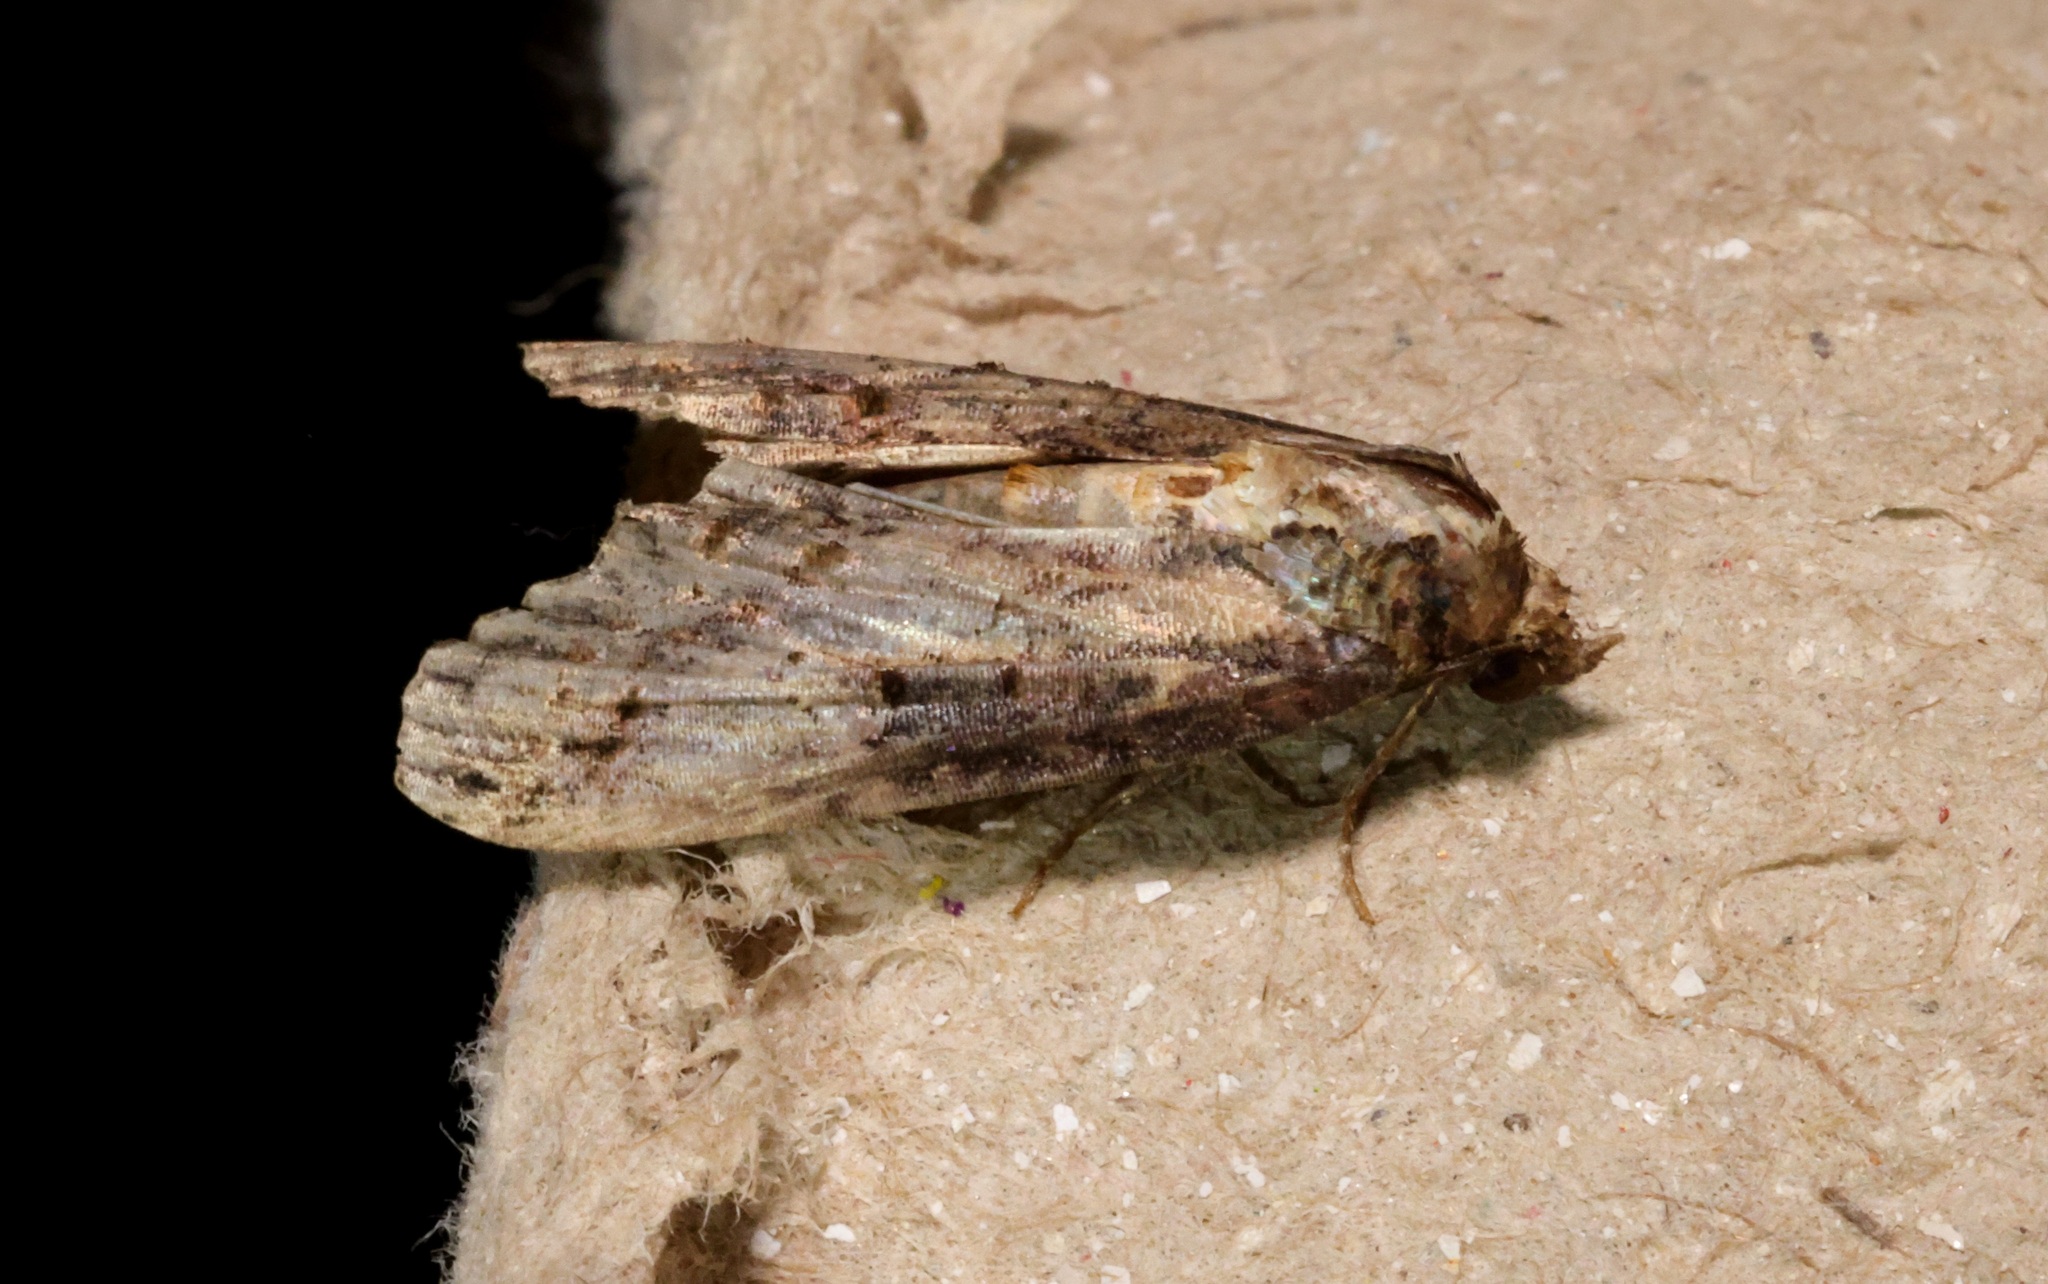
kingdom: Animalia
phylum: Arthropoda
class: Insecta
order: Lepidoptera
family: Euteliidae
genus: Lophoptera
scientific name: Lophoptera anthyalus
